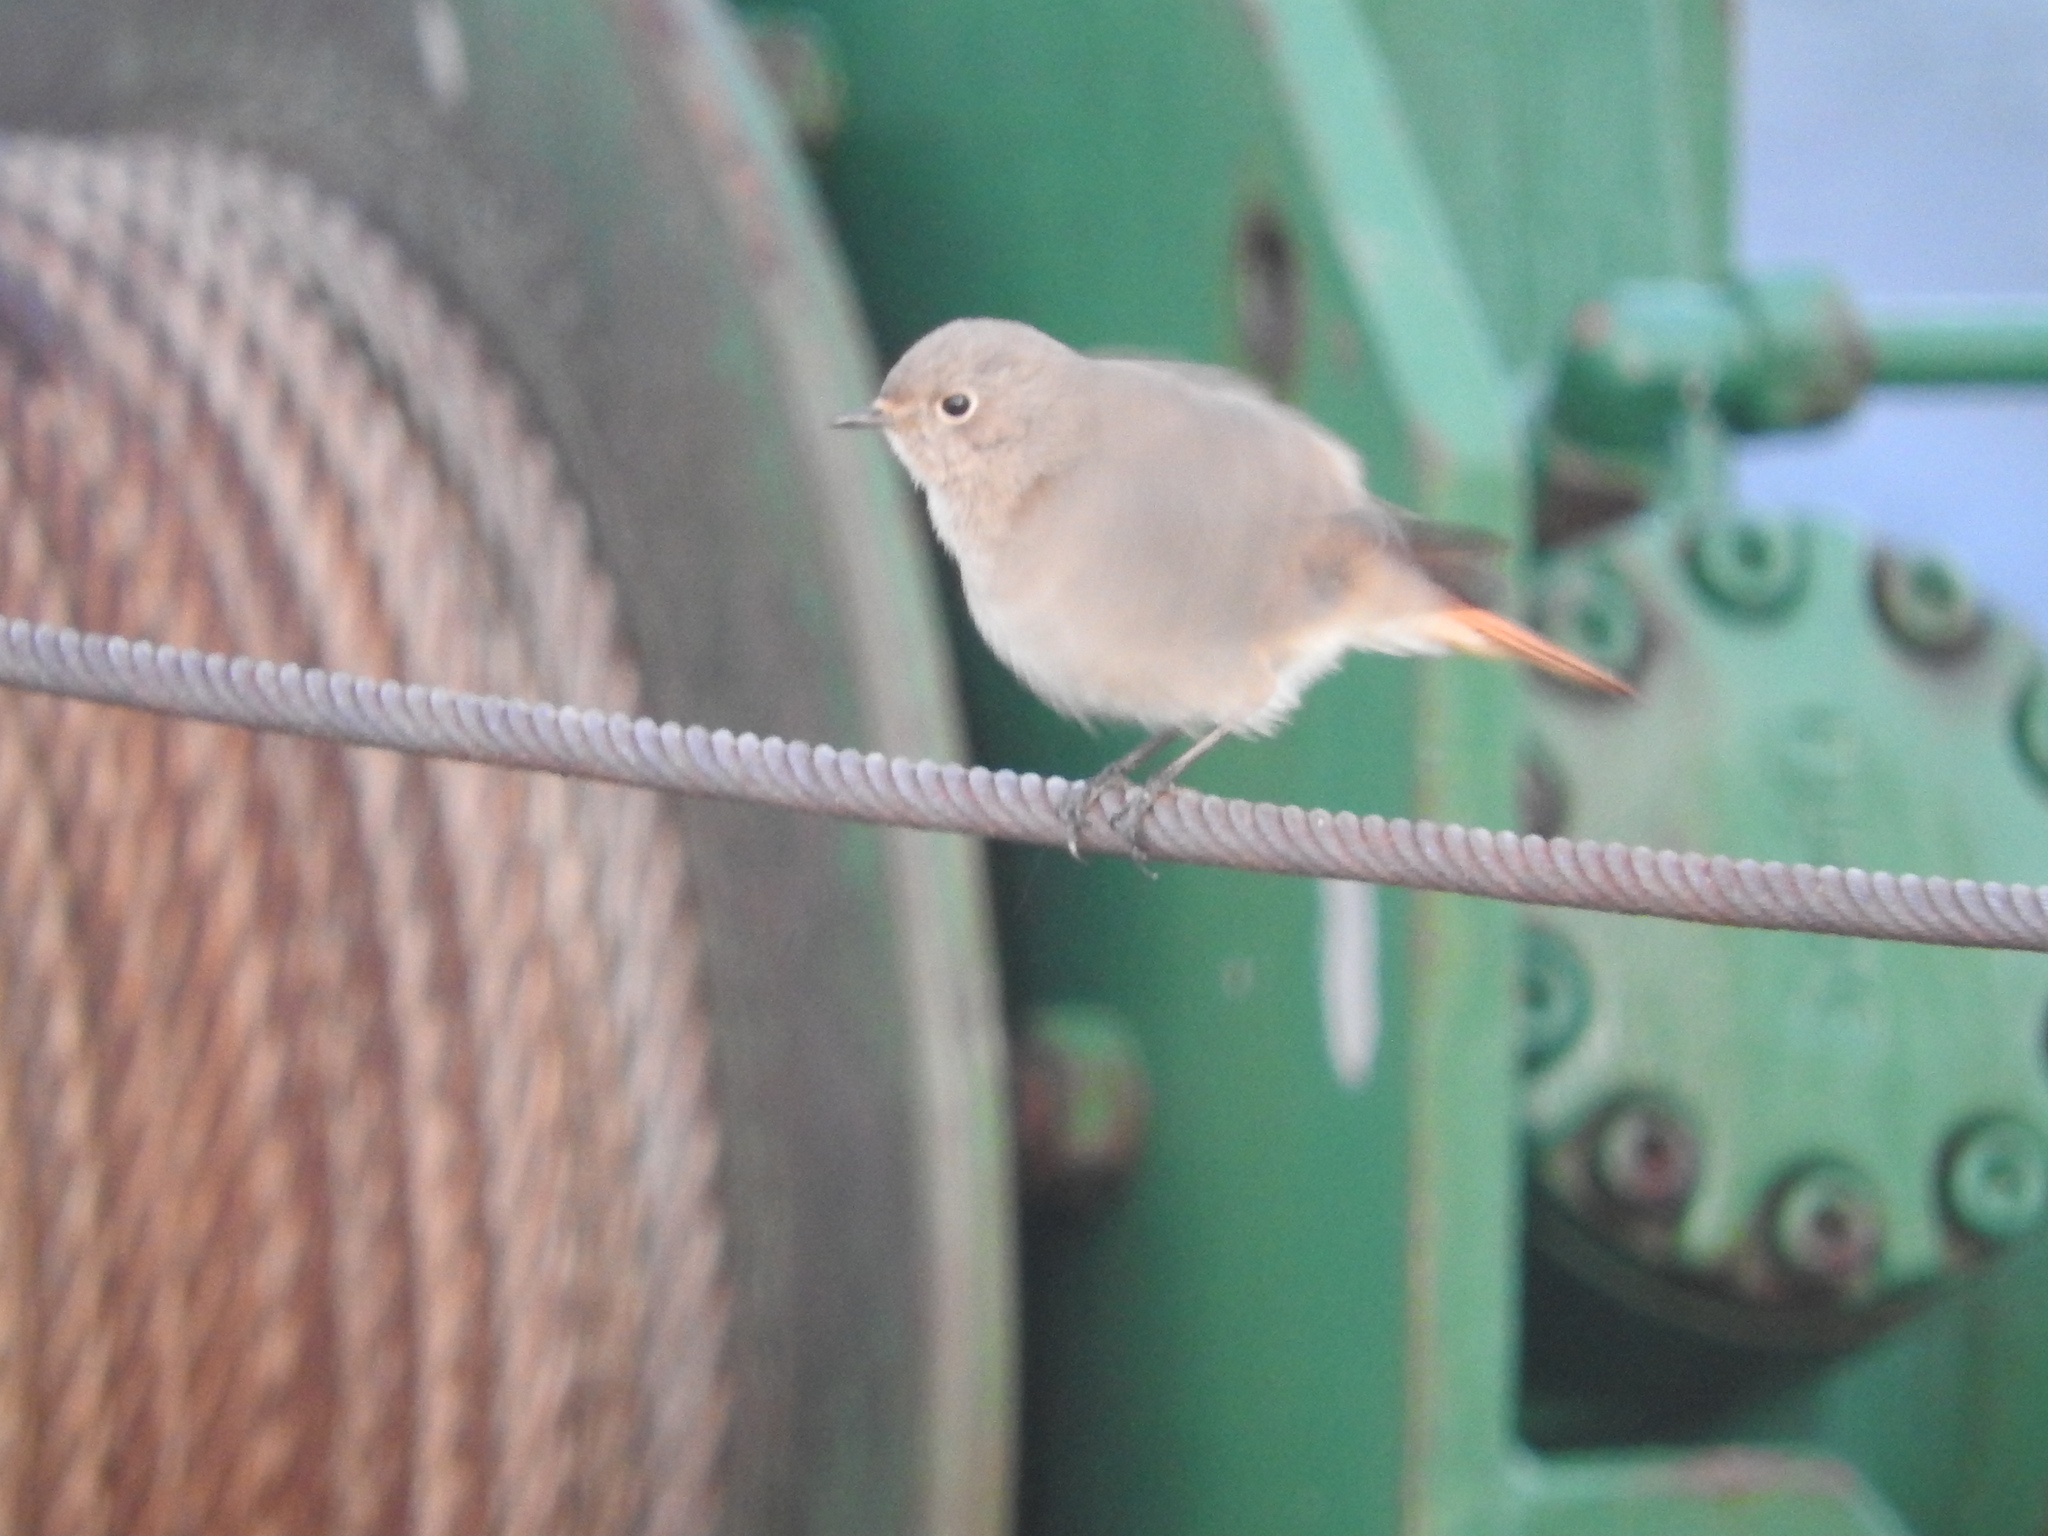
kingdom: Animalia
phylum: Chordata
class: Aves
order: Passeriformes
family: Muscicapidae
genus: Phoenicurus
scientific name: Phoenicurus ochruros
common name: Black redstart
